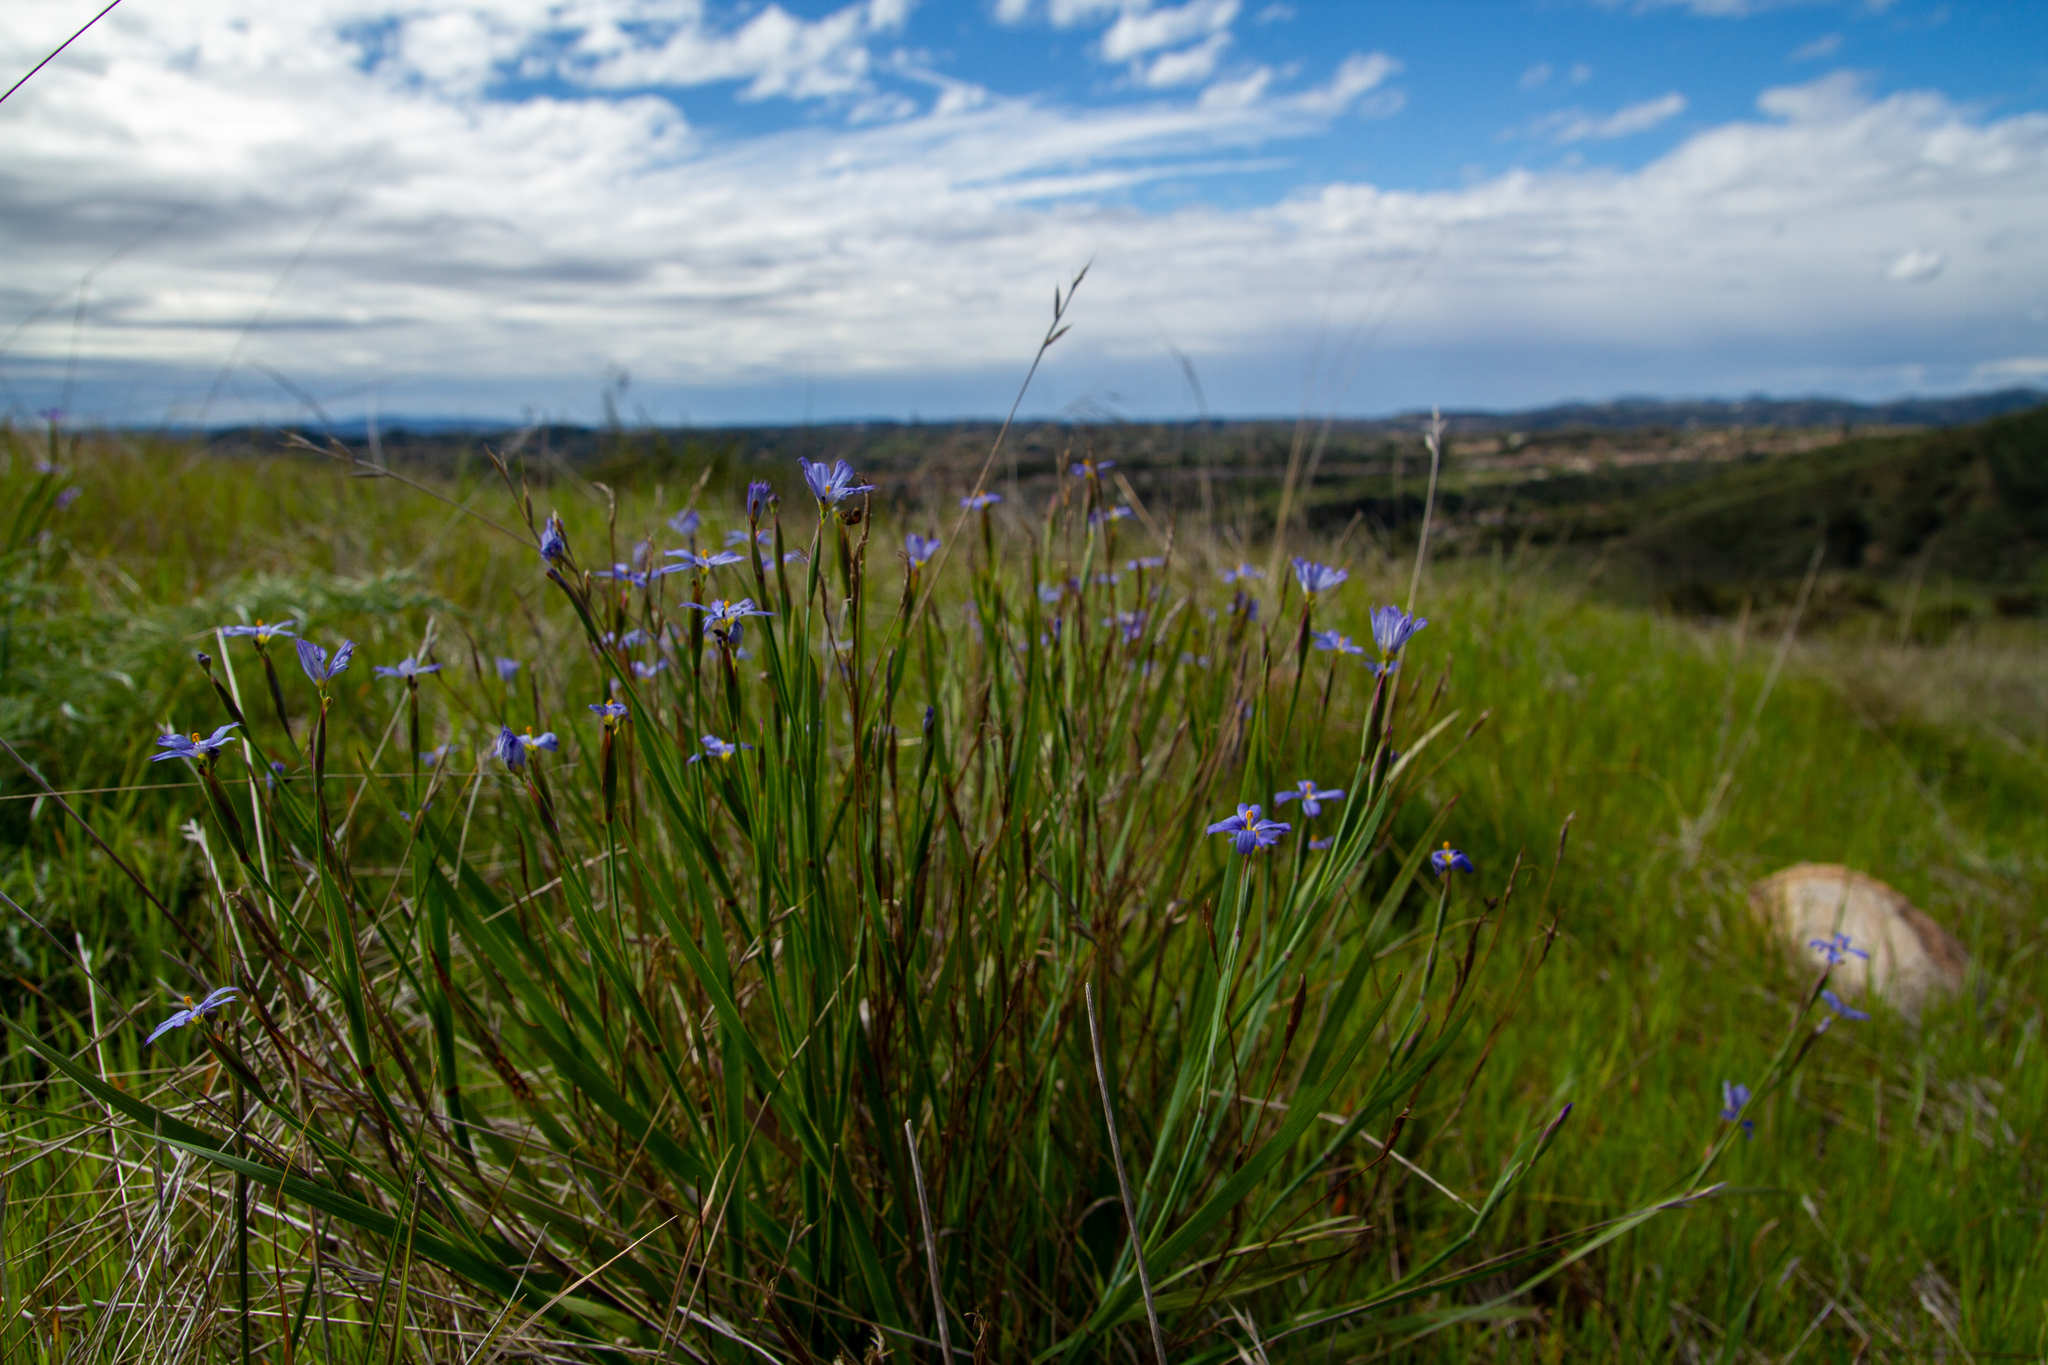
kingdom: Plantae
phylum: Tracheophyta
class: Liliopsida
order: Asparagales
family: Iridaceae
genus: Sisyrinchium
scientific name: Sisyrinchium bellum
